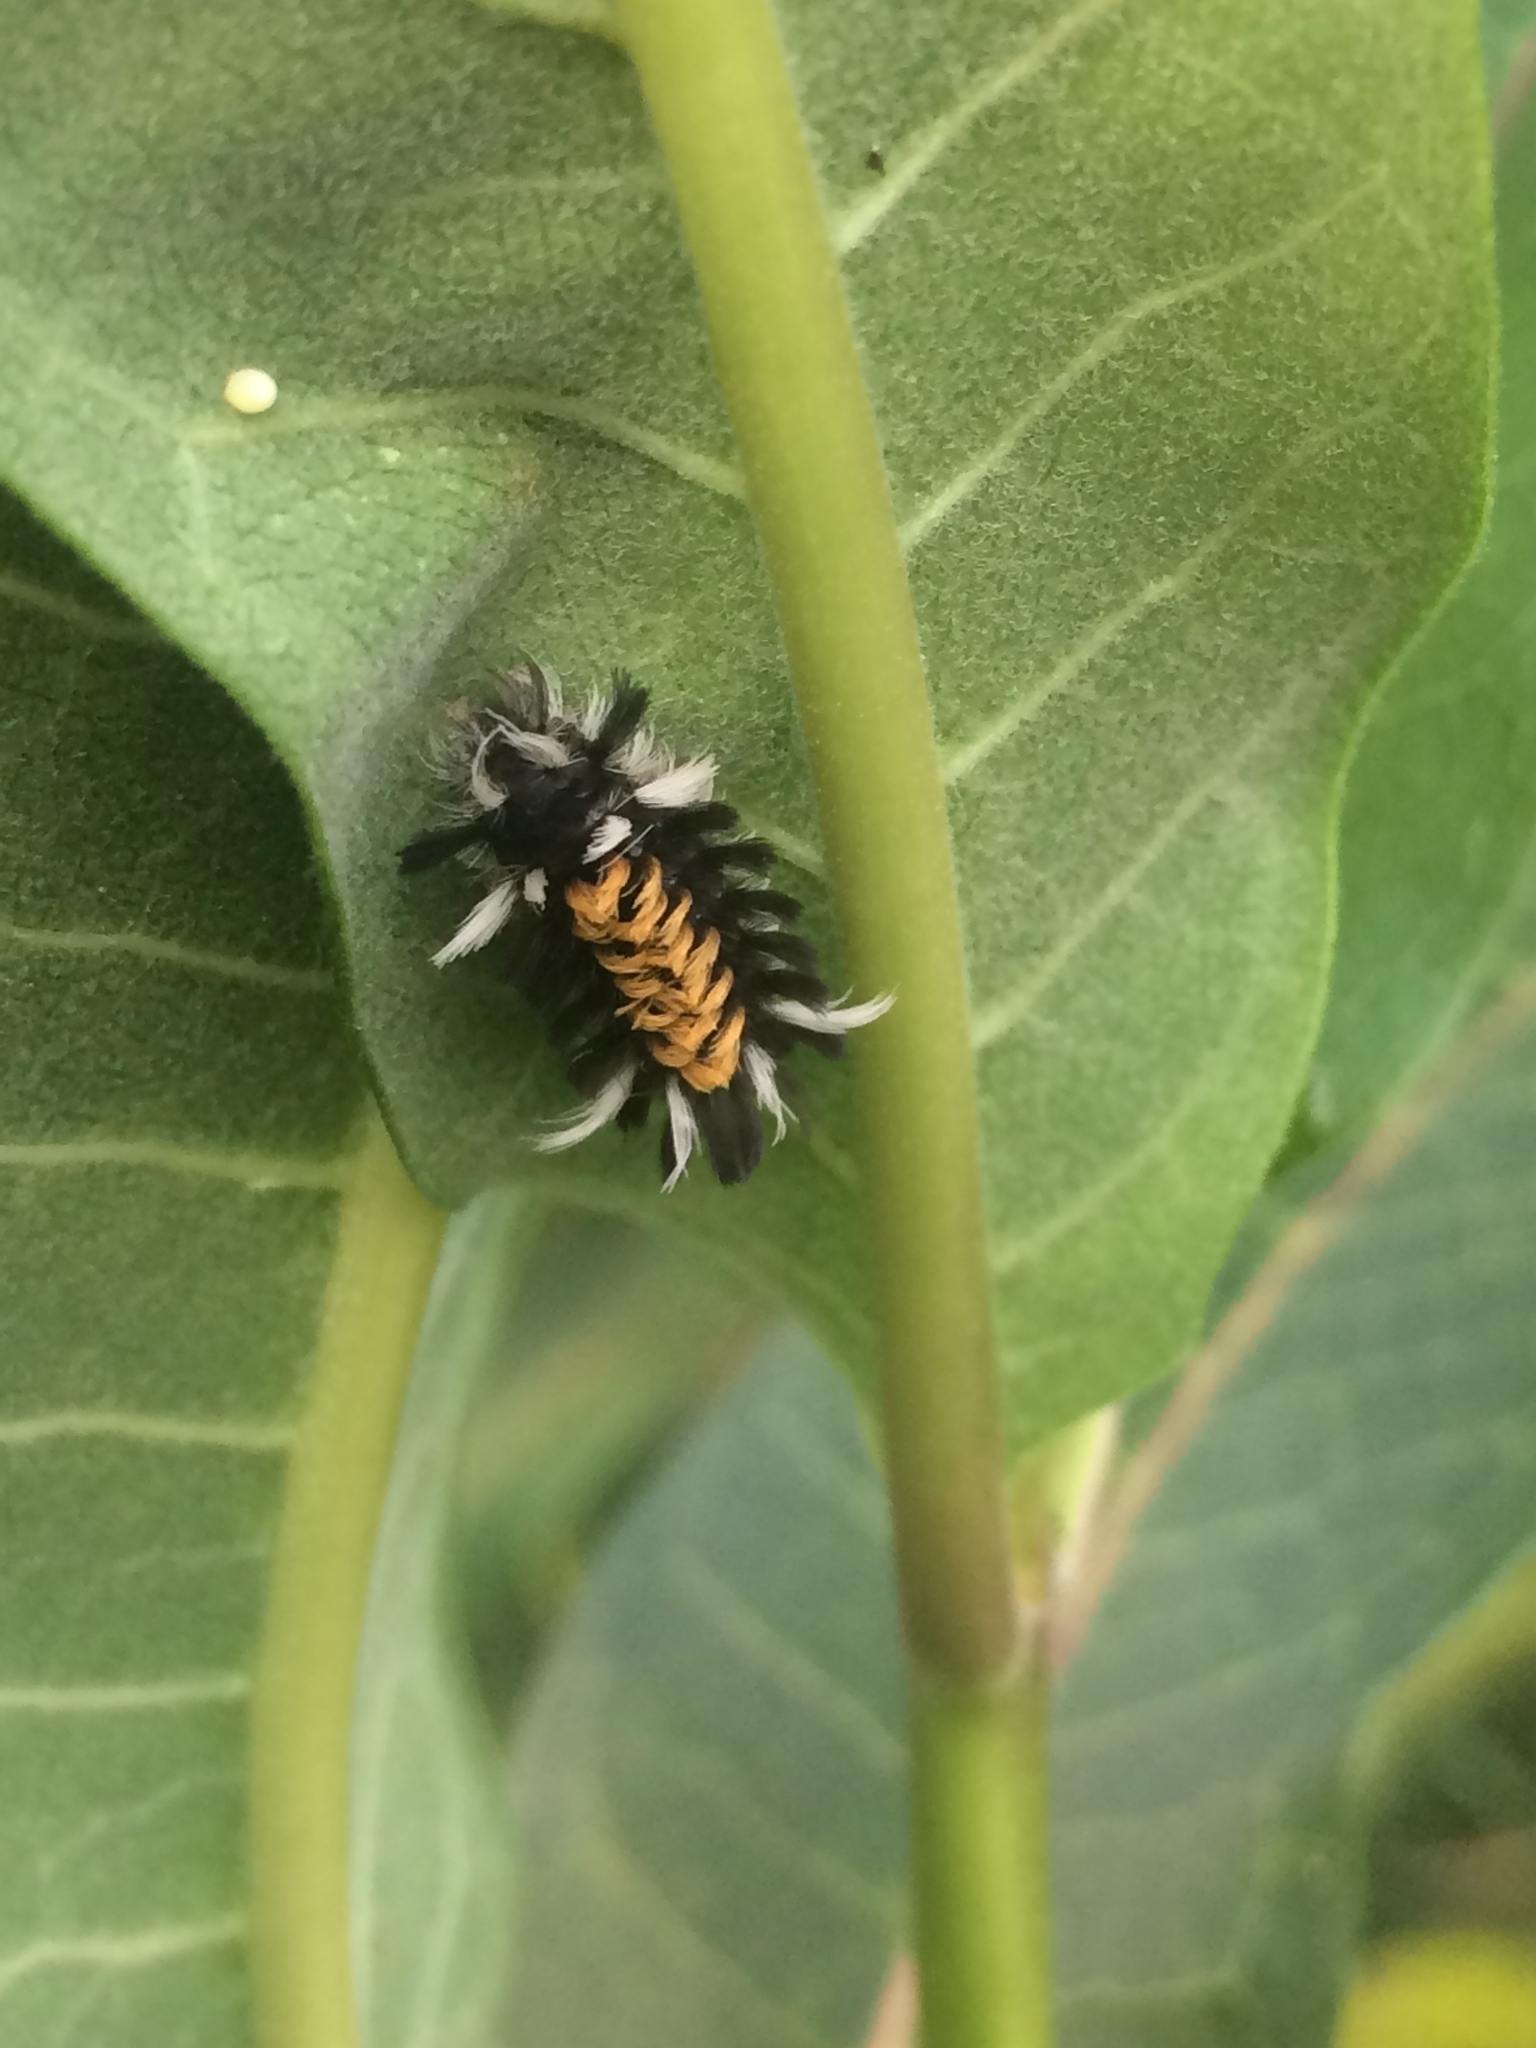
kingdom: Animalia
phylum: Arthropoda
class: Insecta
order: Lepidoptera
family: Erebidae
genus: Euchaetes
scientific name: Euchaetes egle
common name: Milkweed tussock moth
